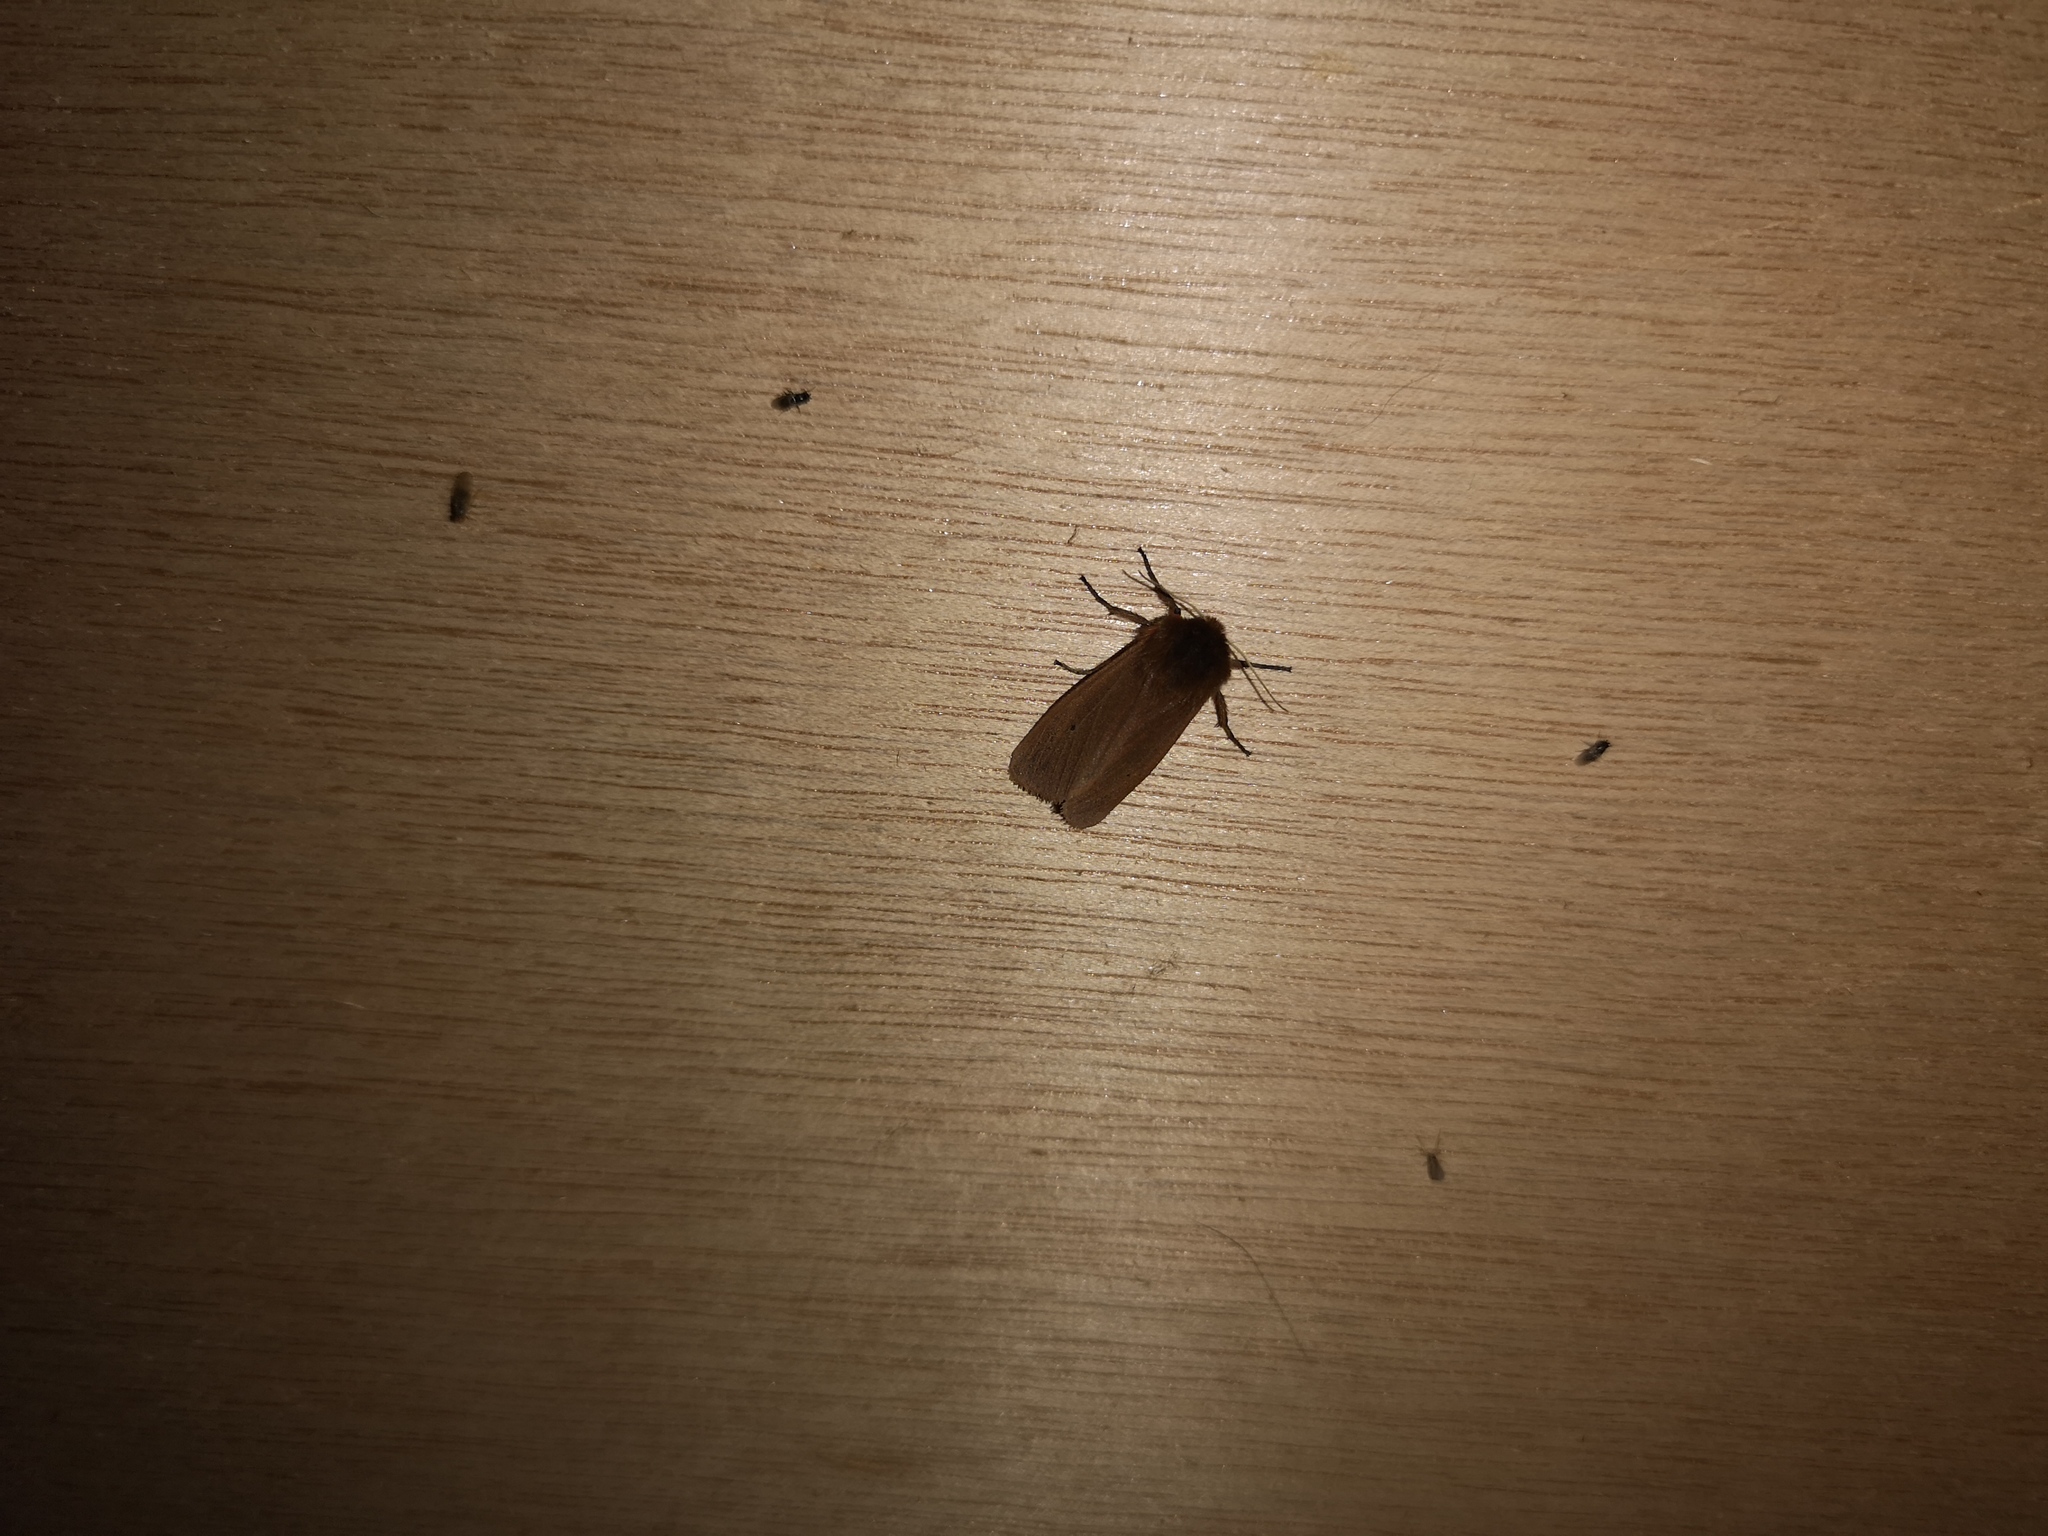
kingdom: Animalia
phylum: Arthropoda
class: Insecta
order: Lepidoptera
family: Erebidae
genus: Phragmatobia
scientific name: Phragmatobia fuliginosa
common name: Ruby tiger
